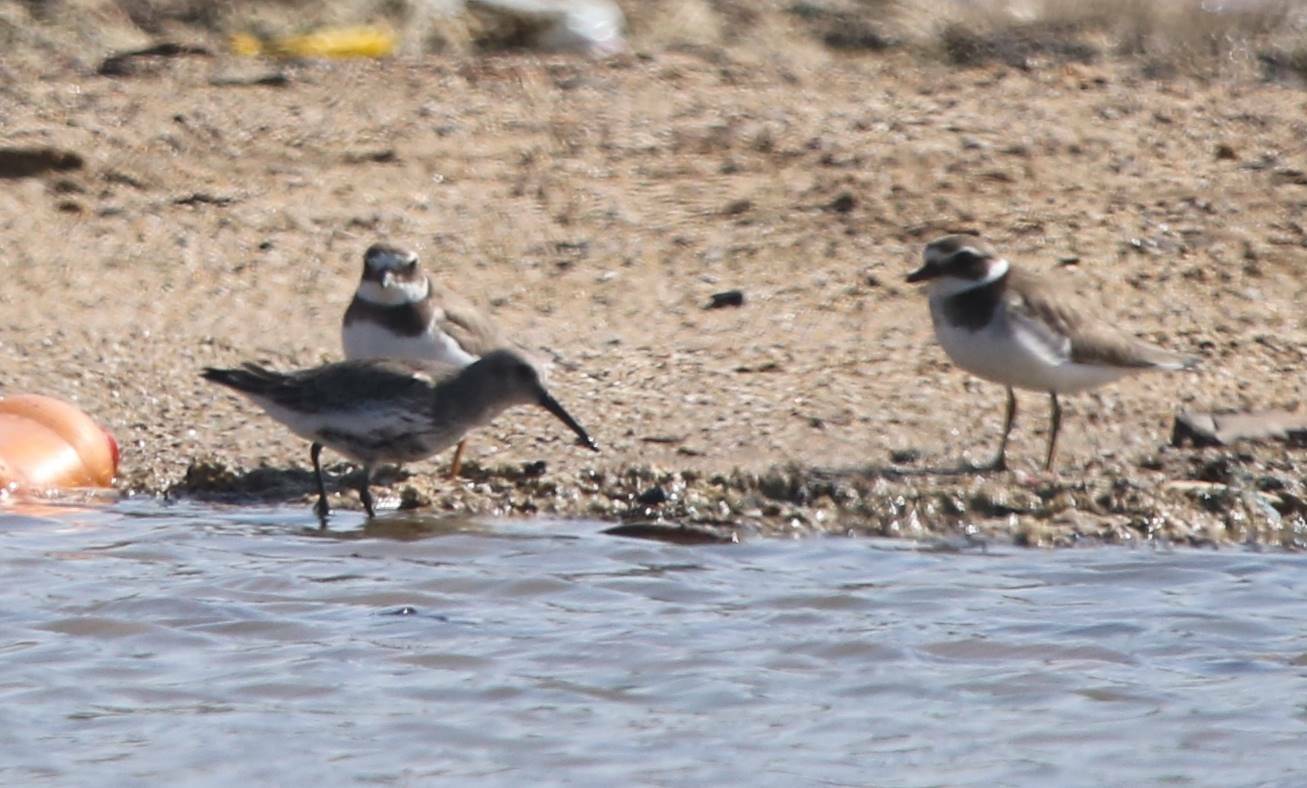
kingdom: Animalia
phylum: Chordata
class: Aves
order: Charadriiformes
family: Scolopacidae
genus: Calidris
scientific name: Calidris alpina
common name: Dunlin
